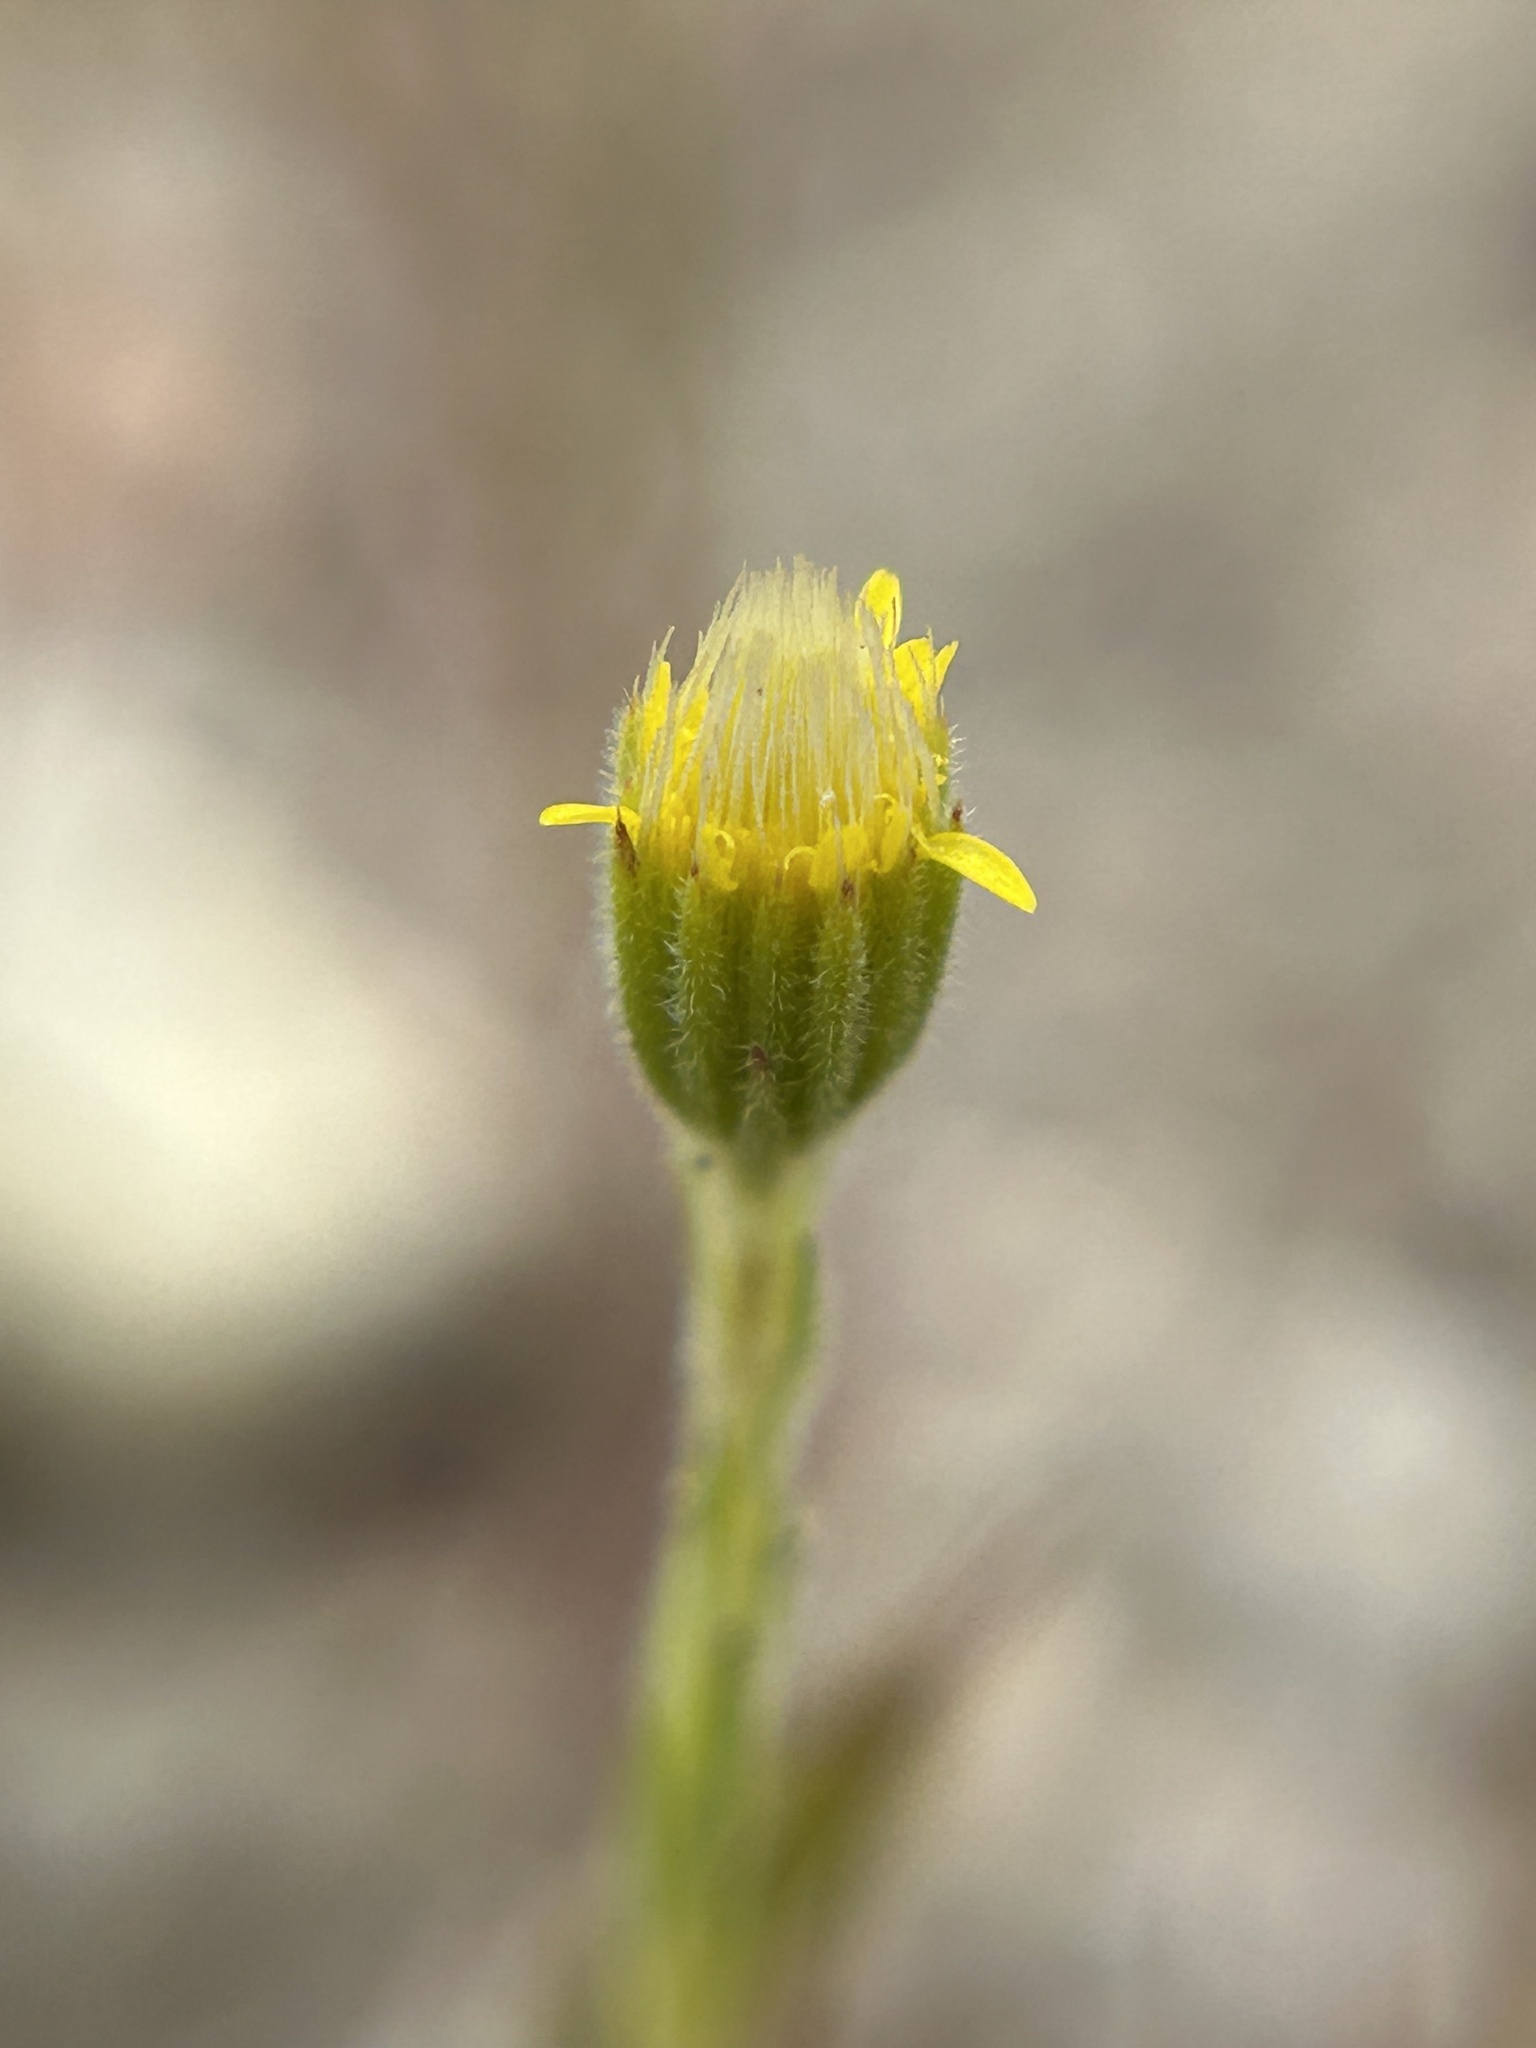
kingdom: Plantae
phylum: Tracheophyta
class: Magnoliopsida
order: Asterales
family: Asteraceae
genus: Rigiopappus
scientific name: Rigiopappus leptocladus
